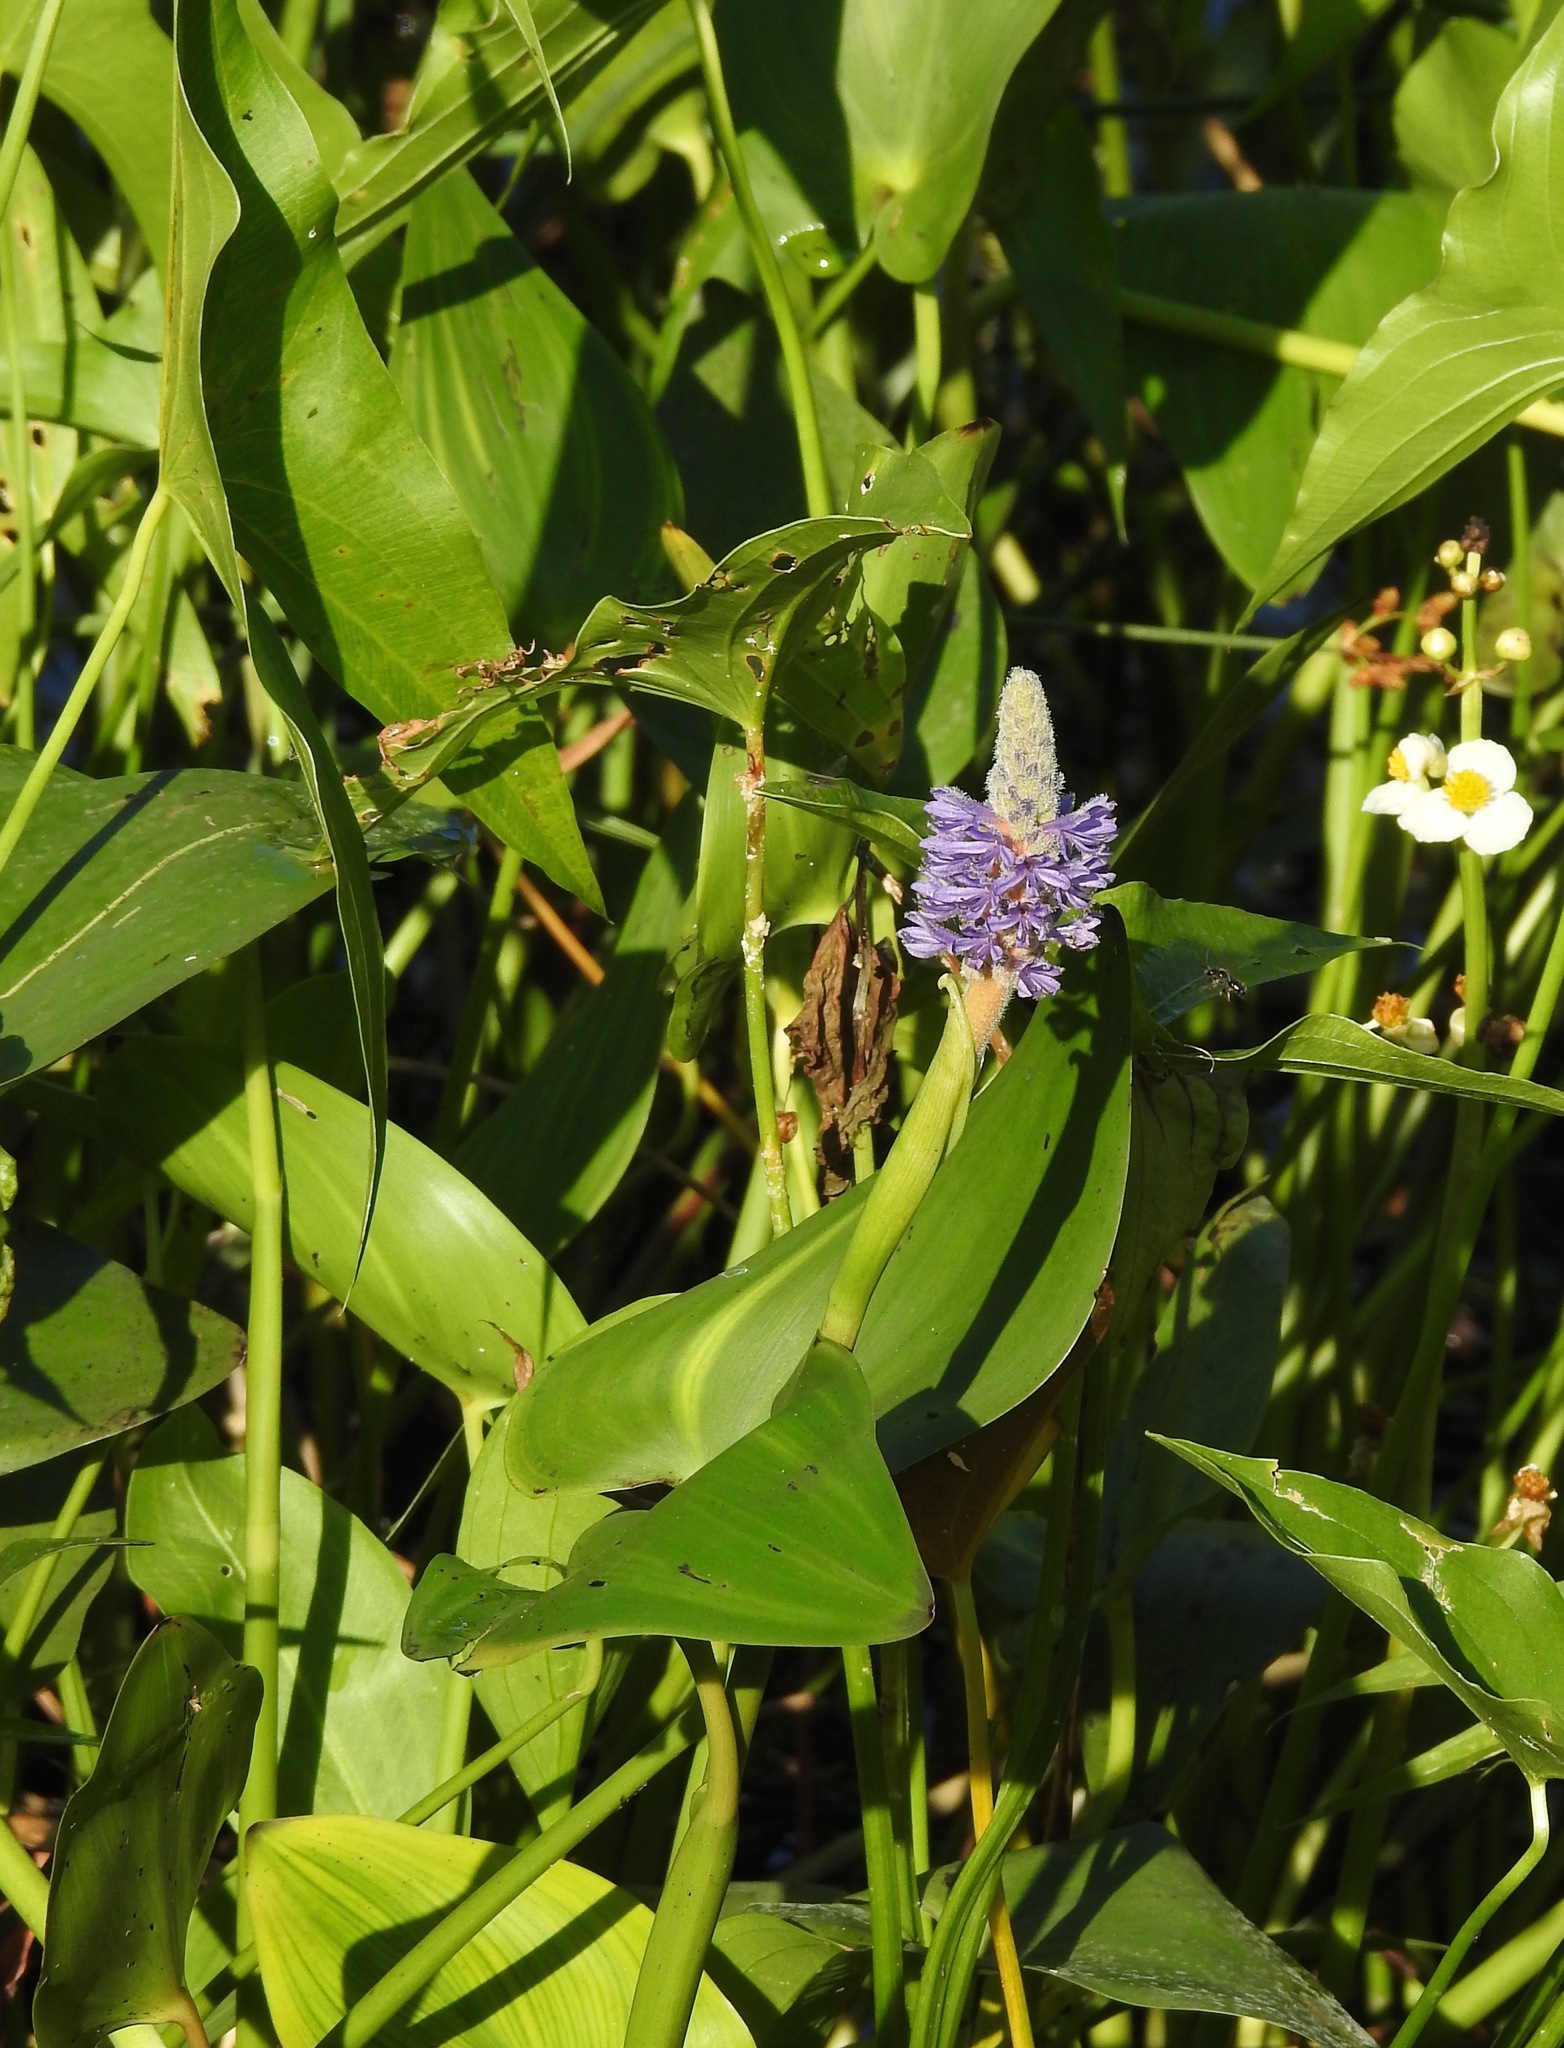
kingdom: Plantae
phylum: Tracheophyta
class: Liliopsida
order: Commelinales
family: Pontederiaceae
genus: Pontederia
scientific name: Pontederia cordata
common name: Pickerelweed
